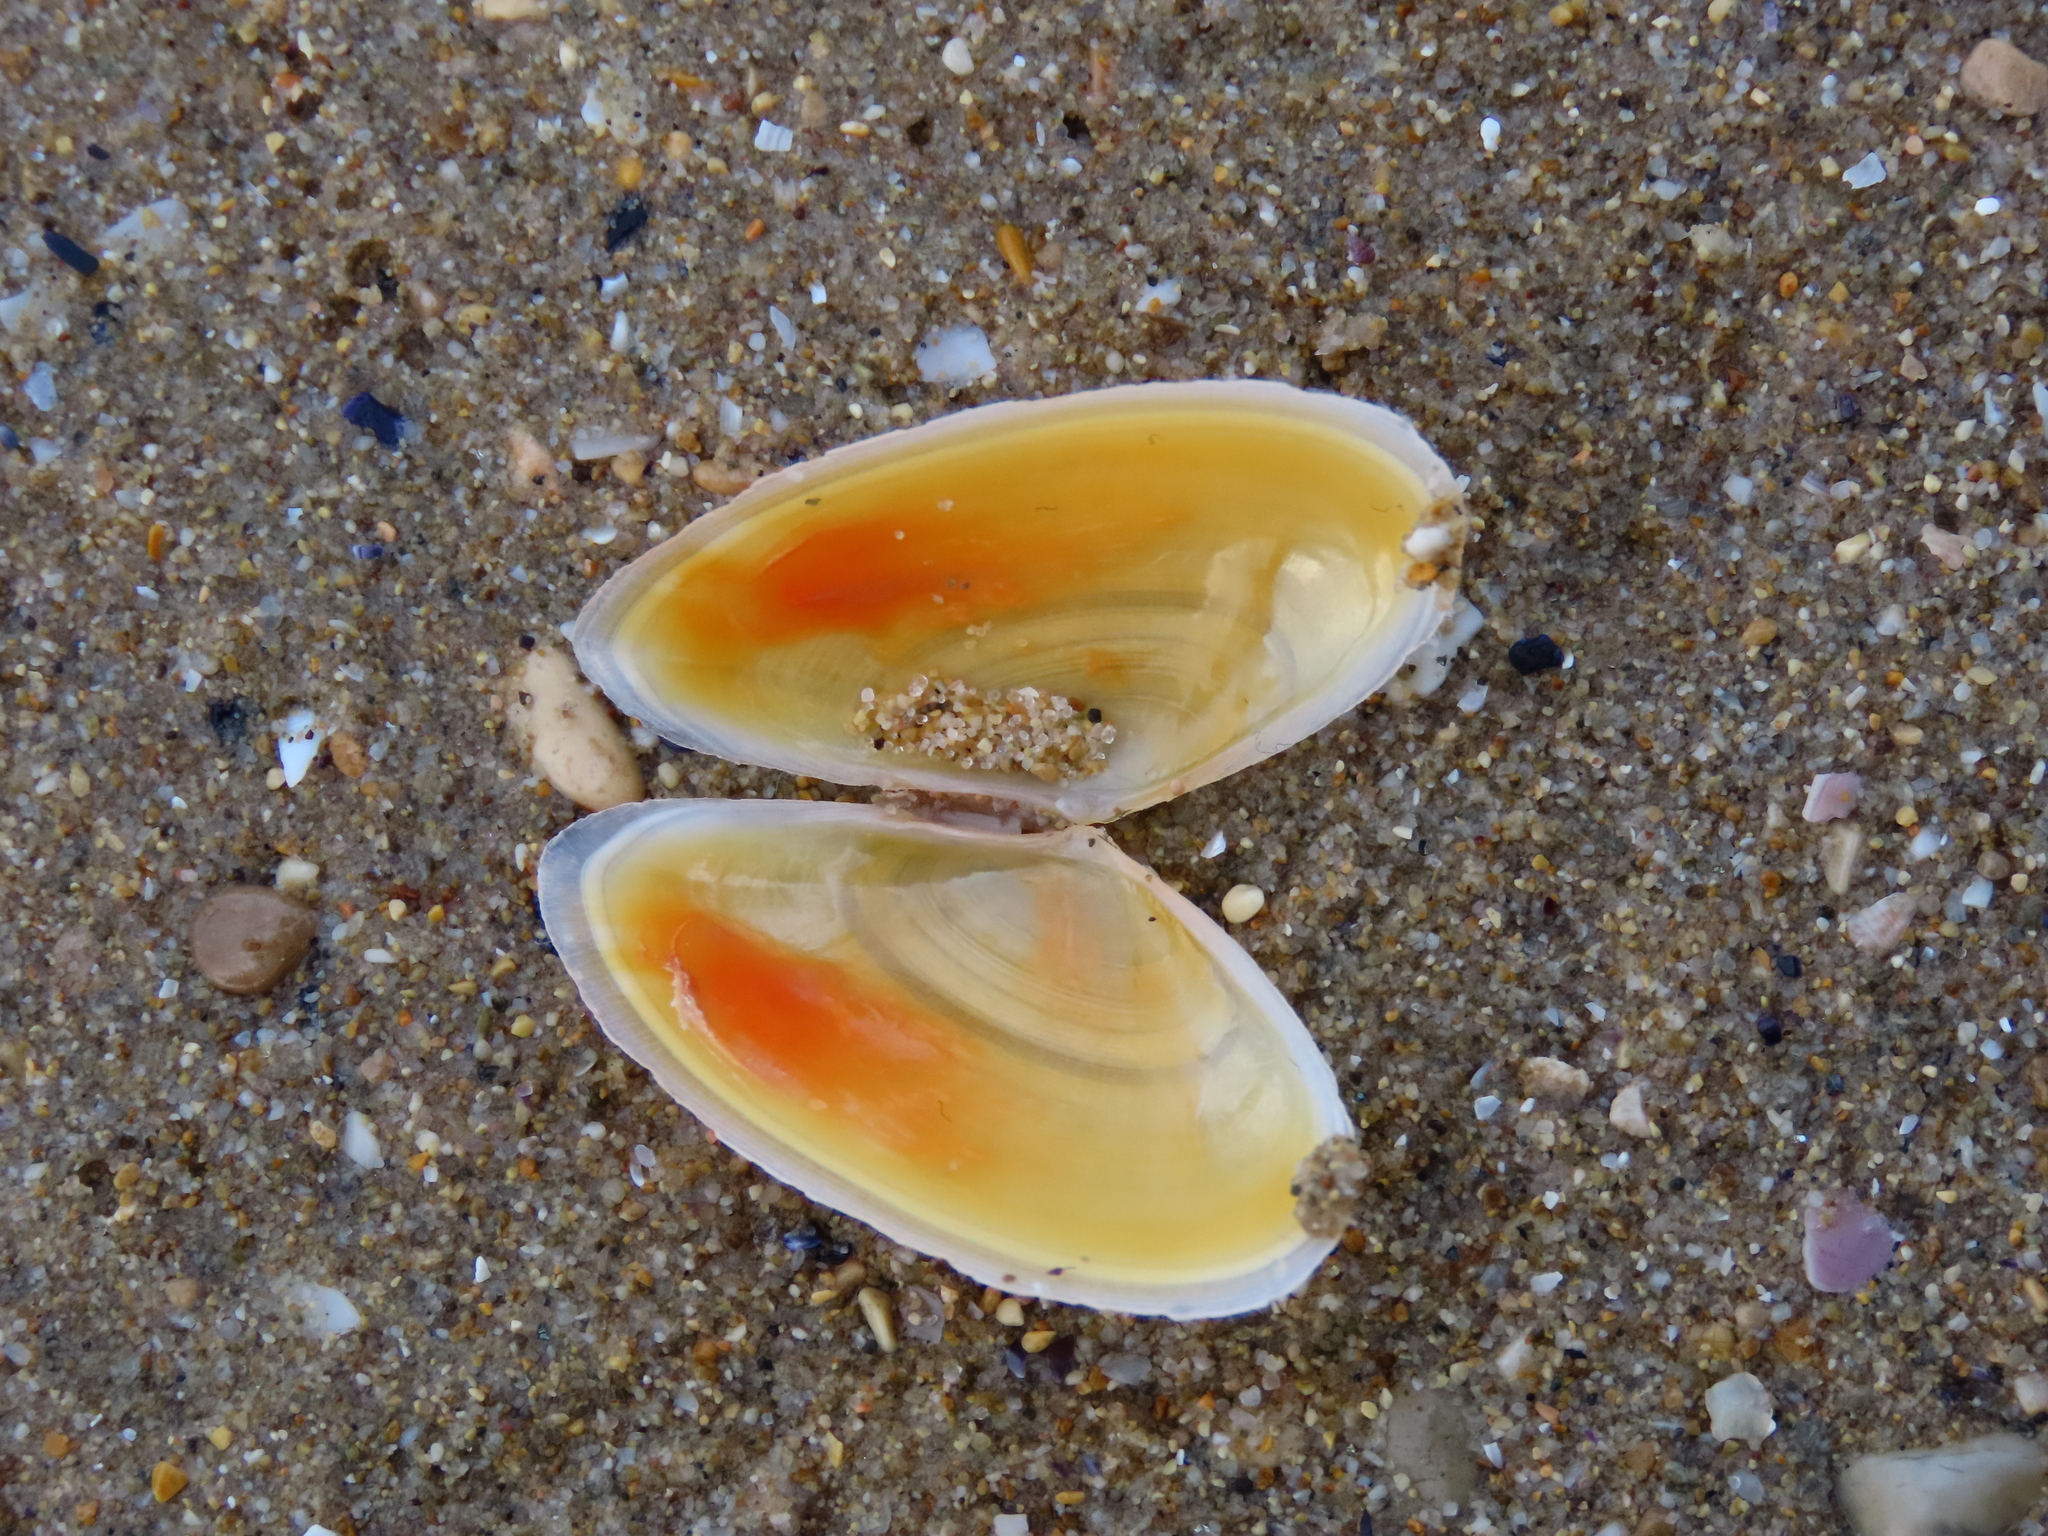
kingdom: Animalia
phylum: Mollusca
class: Bivalvia
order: Cardiida
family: Tellinidae
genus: Peronidia
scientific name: Peronidia albicans
